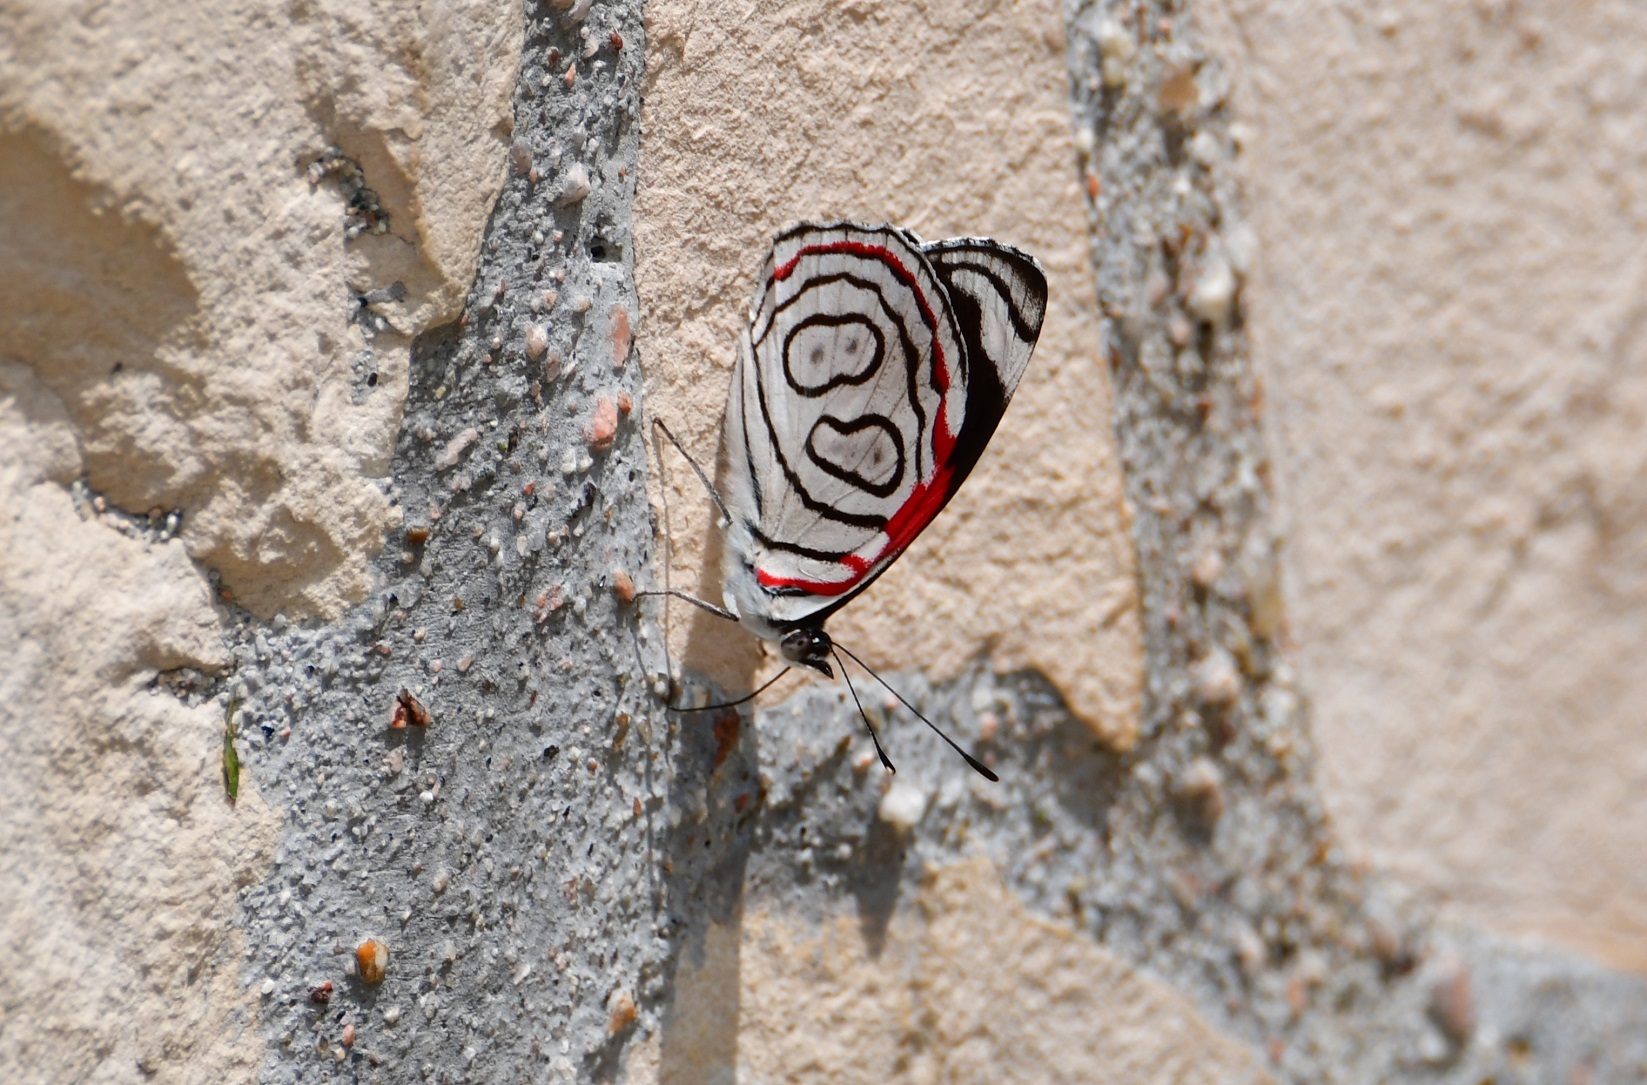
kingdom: Animalia
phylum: Arthropoda
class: Insecta
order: Lepidoptera
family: Nymphalidae
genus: Diaethria
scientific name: Diaethria astala
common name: Navy eighty-eight
